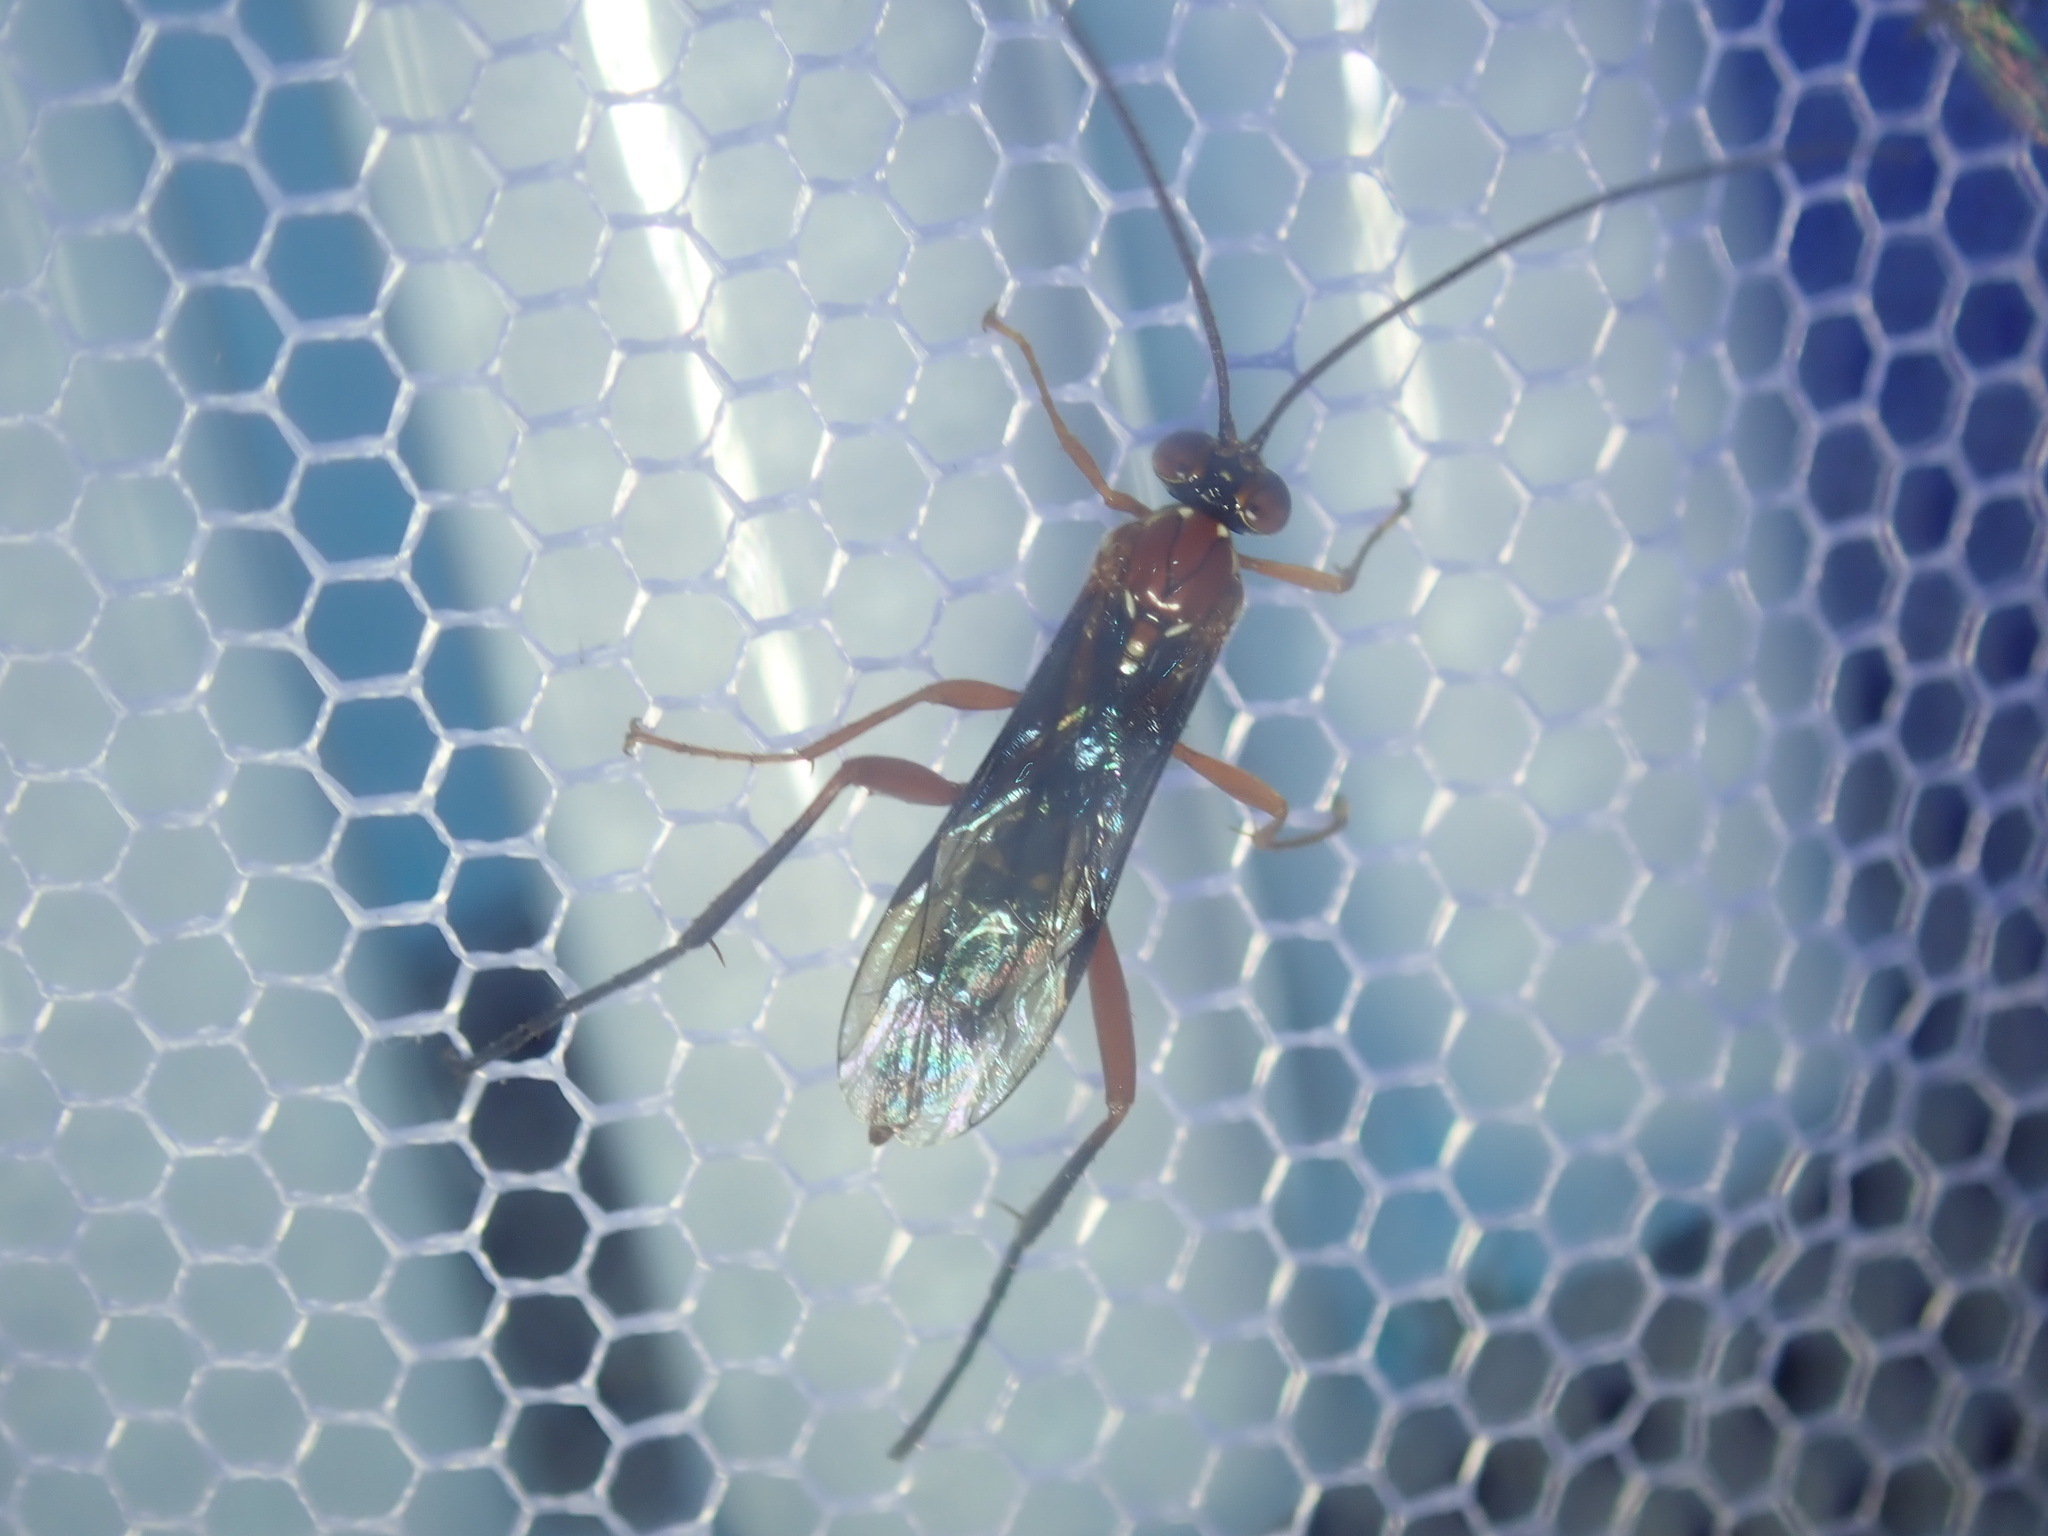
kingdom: Animalia
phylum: Arthropoda
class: Insecta
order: Hymenoptera
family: Ichneumonidae
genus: Lissopimpla
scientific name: Lissopimpla excelsa
